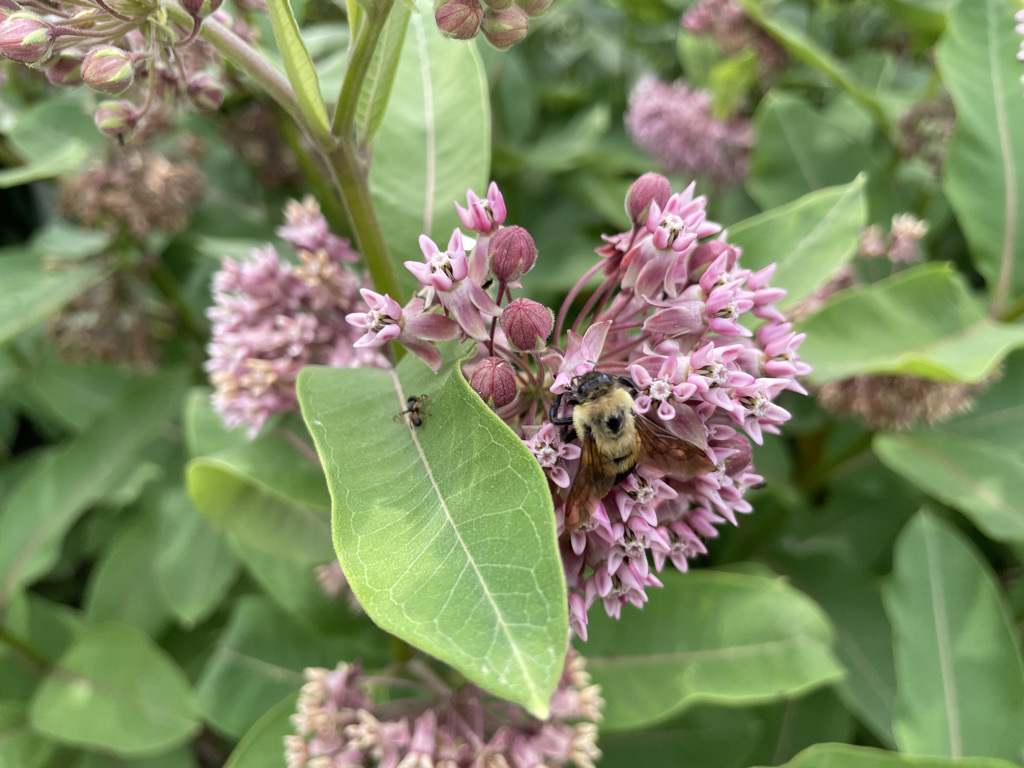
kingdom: Animalia
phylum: Arthropoda
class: Insecta
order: Hymenoptera
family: Apidae
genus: Bombus
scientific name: Bombus griseocollis
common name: Brown-belted bumble bee
